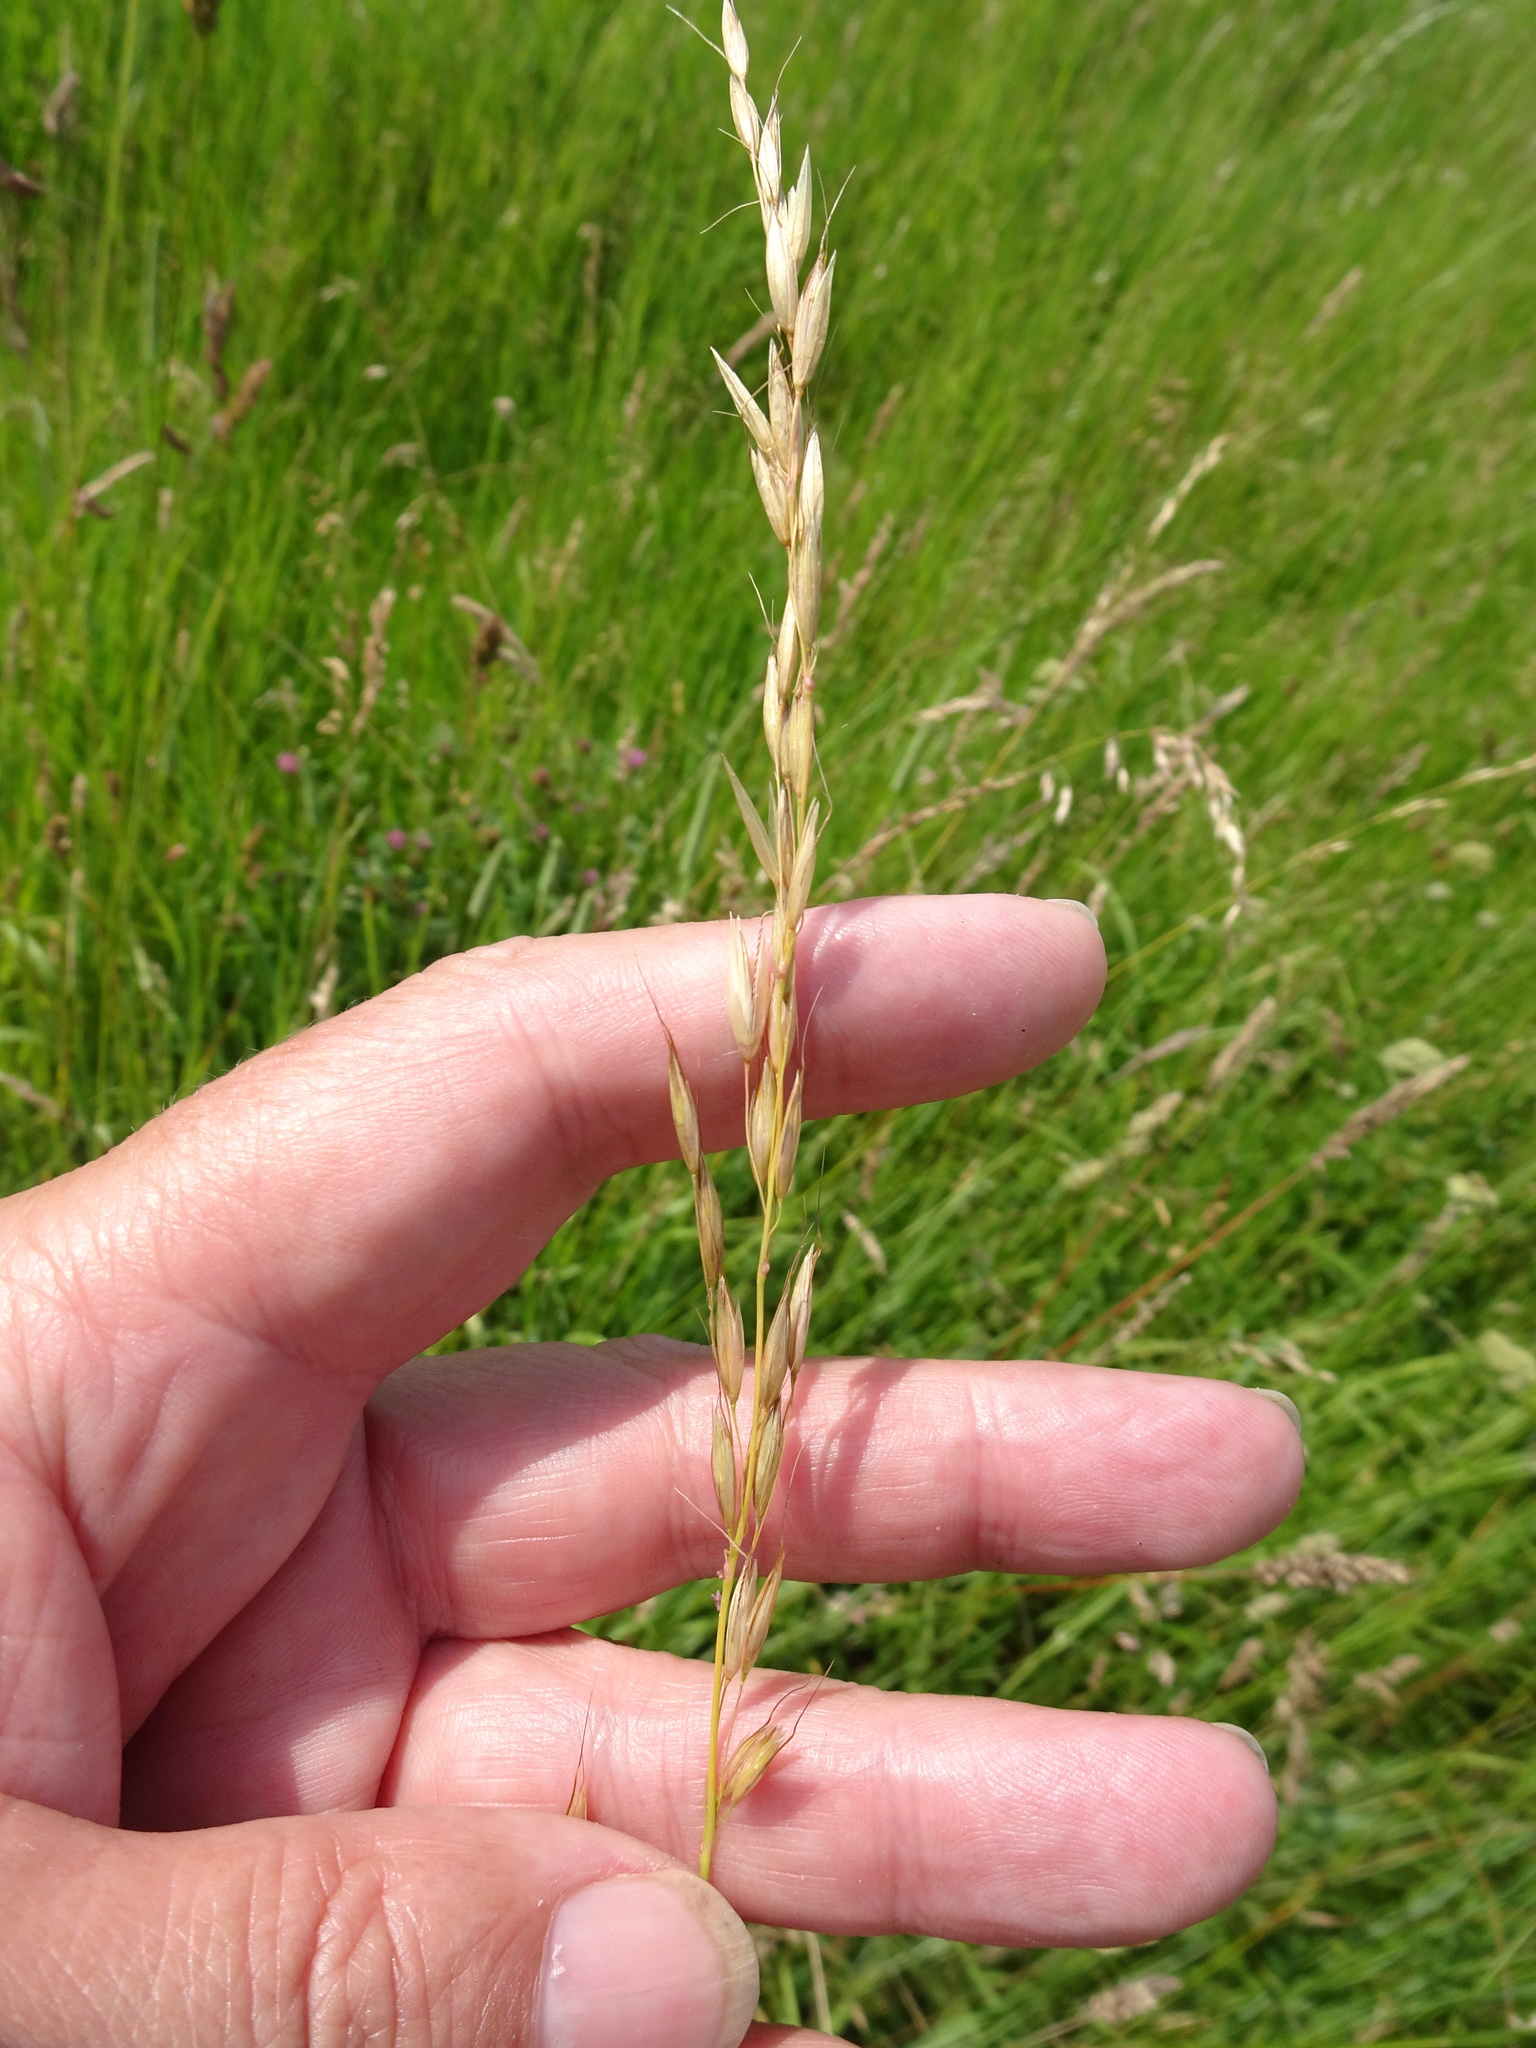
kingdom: Plantae
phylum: Tracheophyta
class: Liliopsida
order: Poales
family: Poaceae
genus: Arrhenatherum
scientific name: Arrhenatherum elatius
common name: Tall oatgrass
